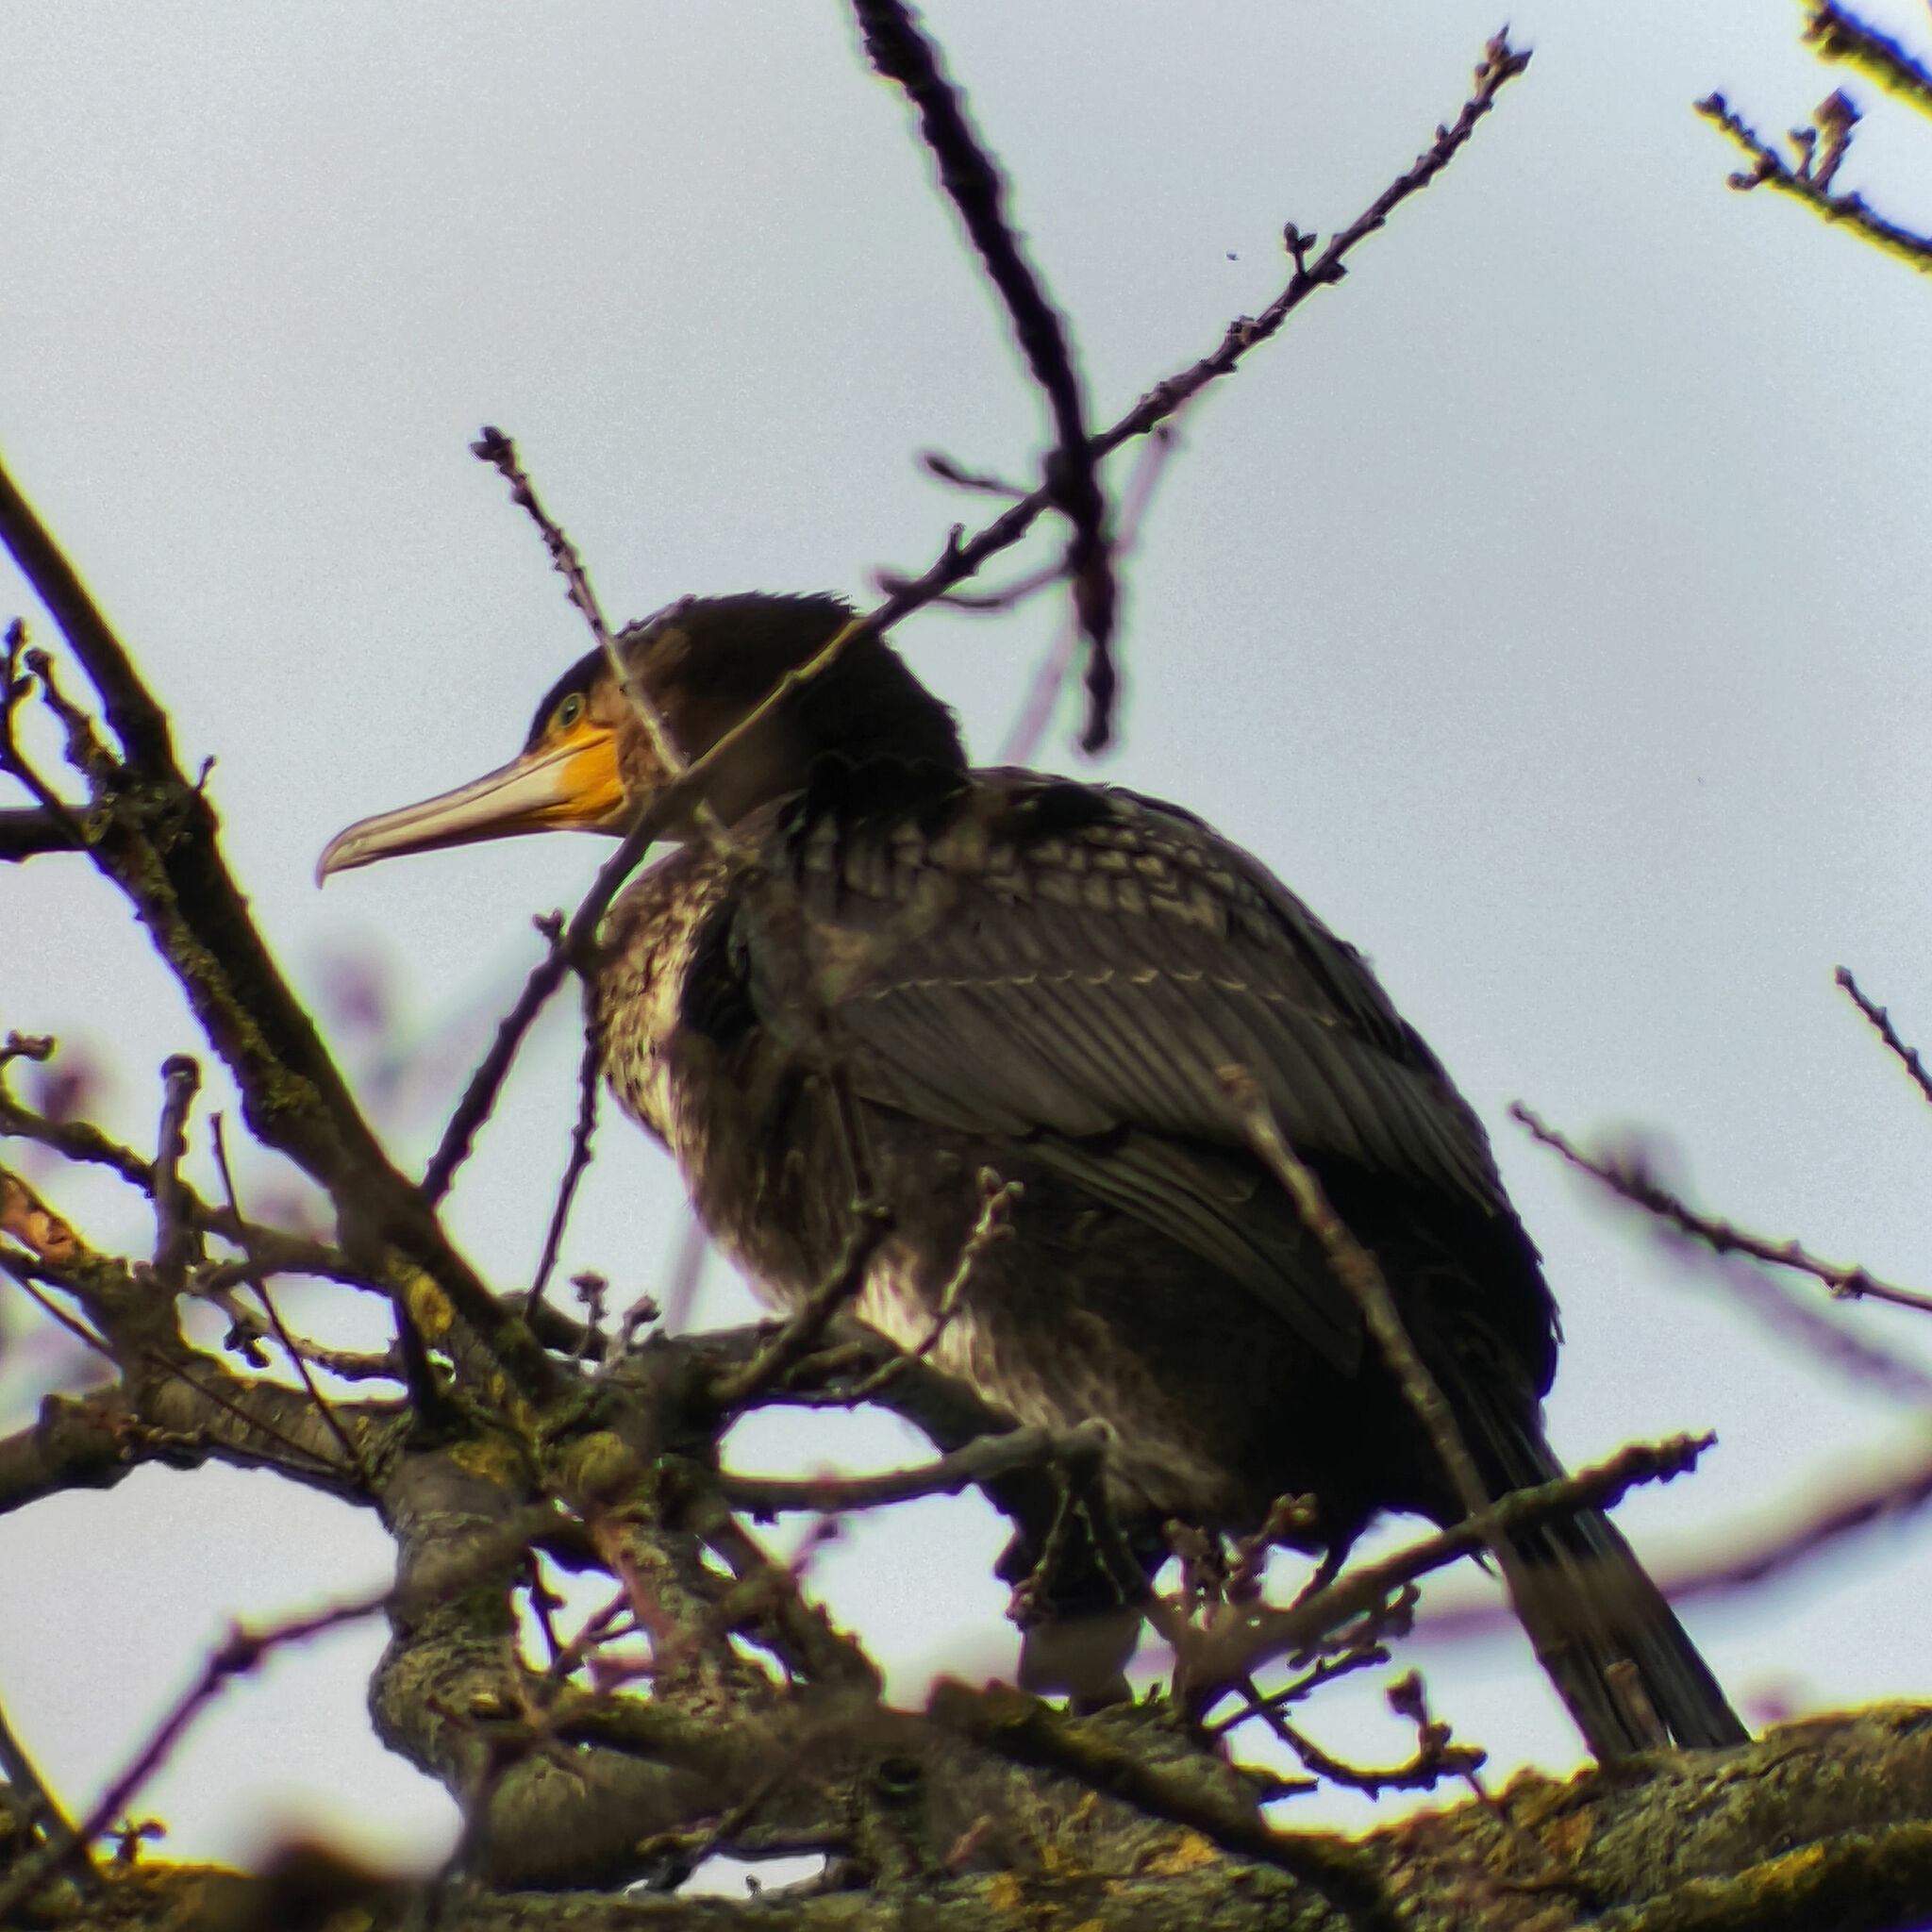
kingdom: Animalia
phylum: Chordata
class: Aves
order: Suliformes
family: Phalacrocoracidae
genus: Phalacrocorax
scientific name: Phalacrocorax carbo
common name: Great cormorant
